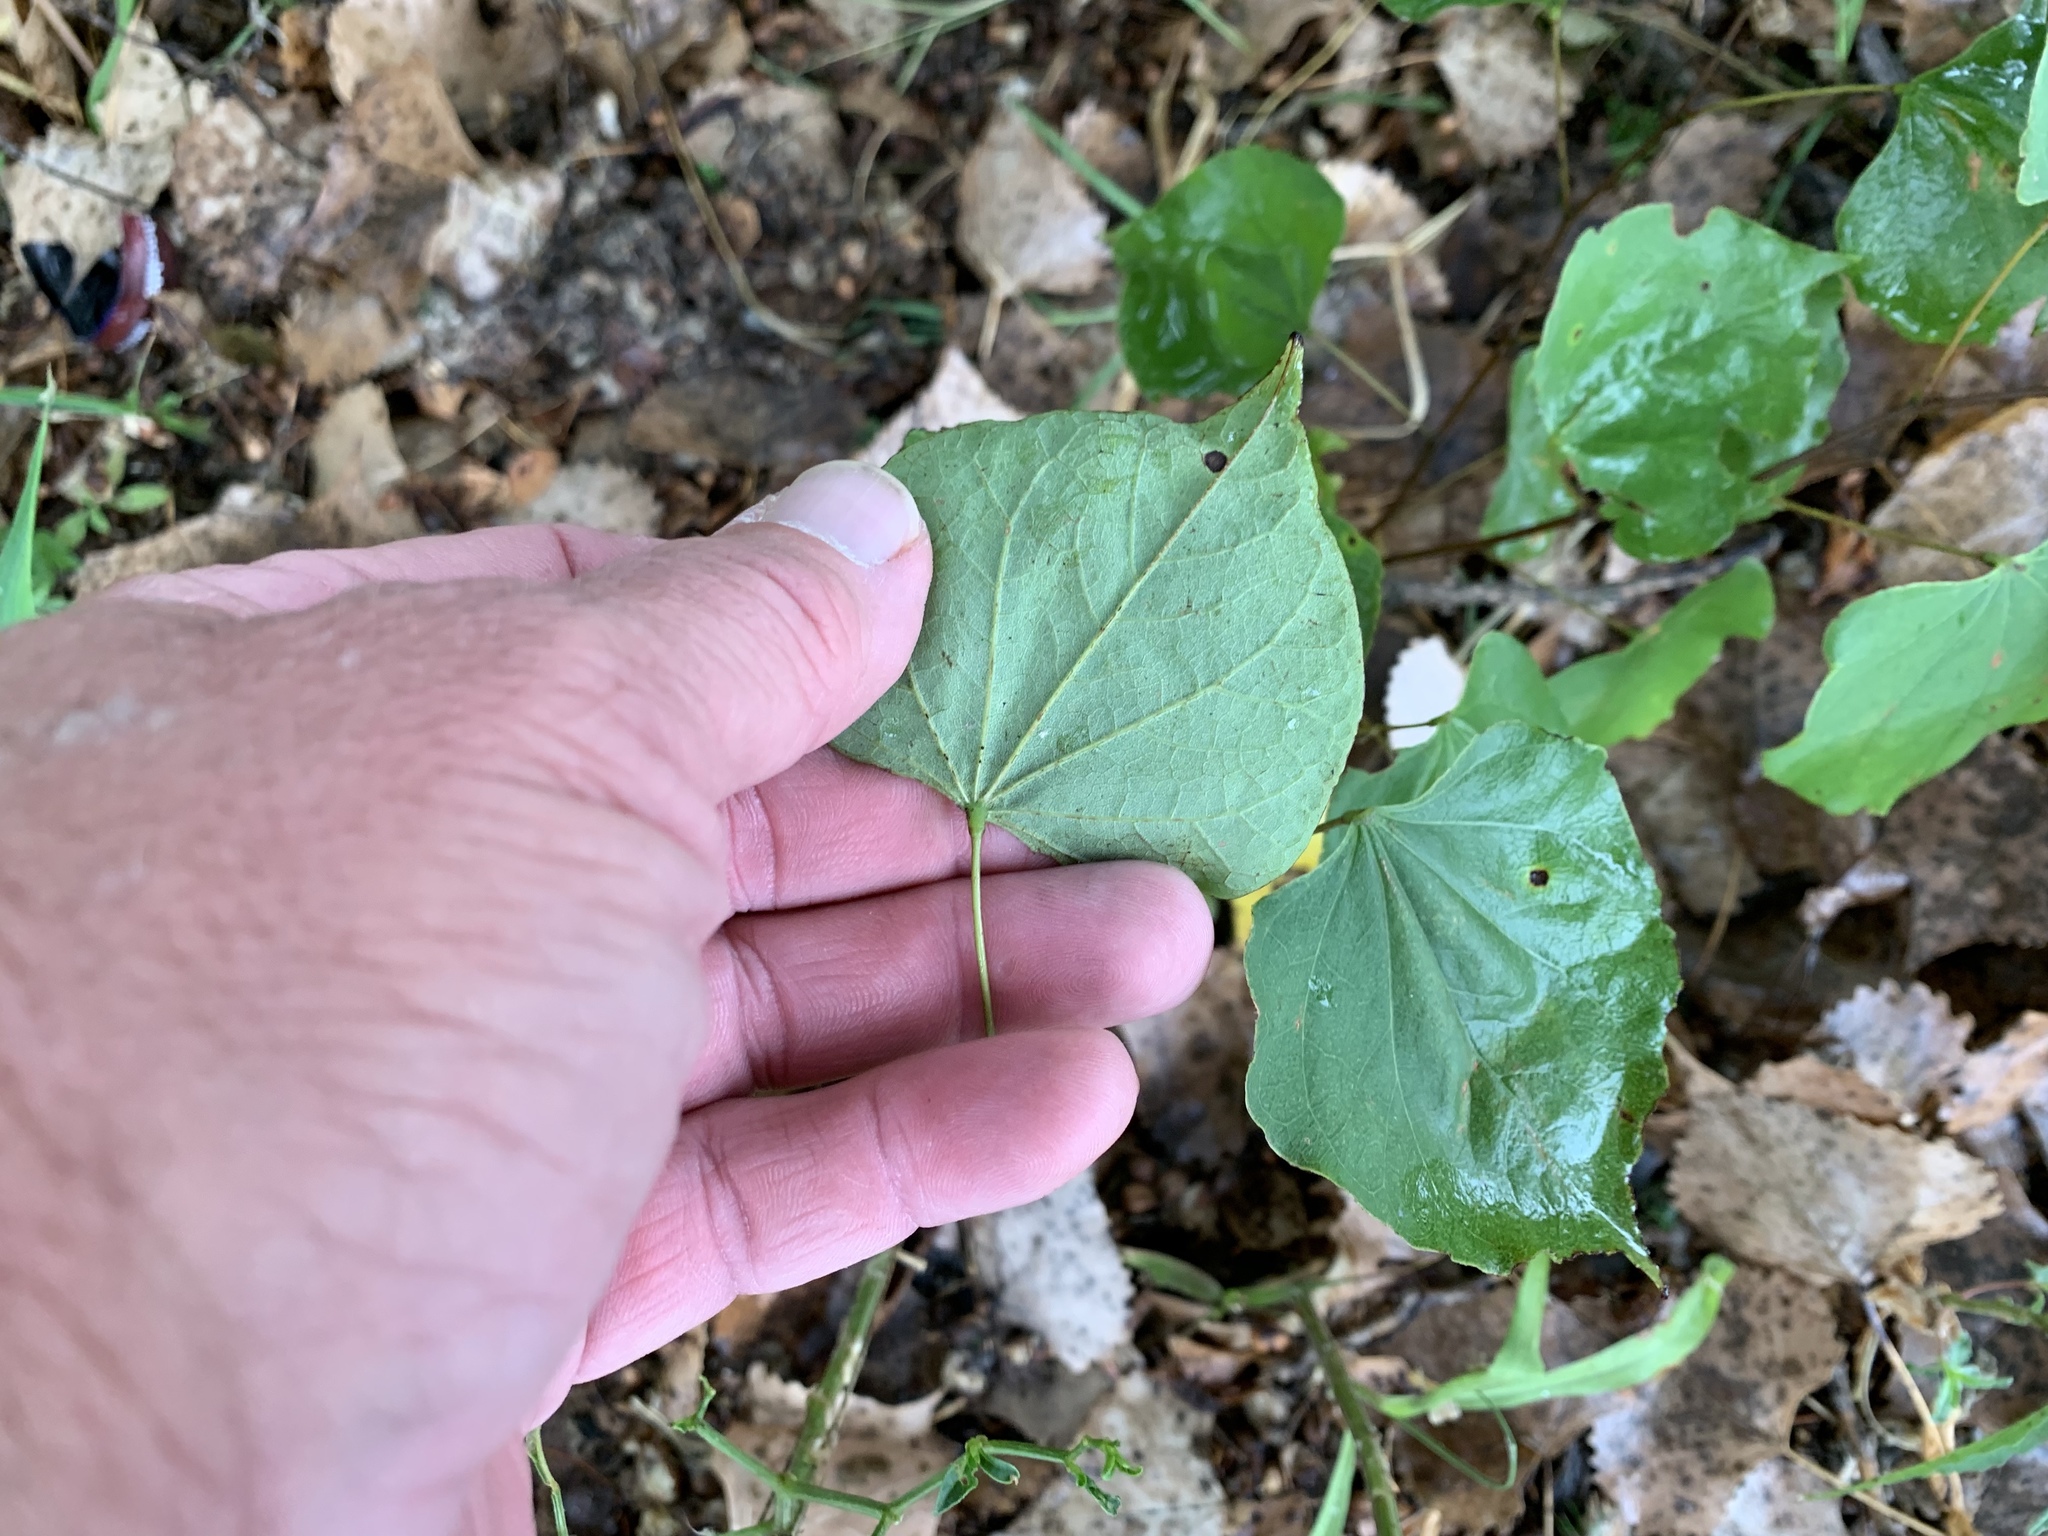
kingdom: Plantae
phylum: Tracheophyta
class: Magnoliopsida
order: Fabales
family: Fabaceae
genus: Cercis
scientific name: Cercis canadensis
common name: Eastern redbud
